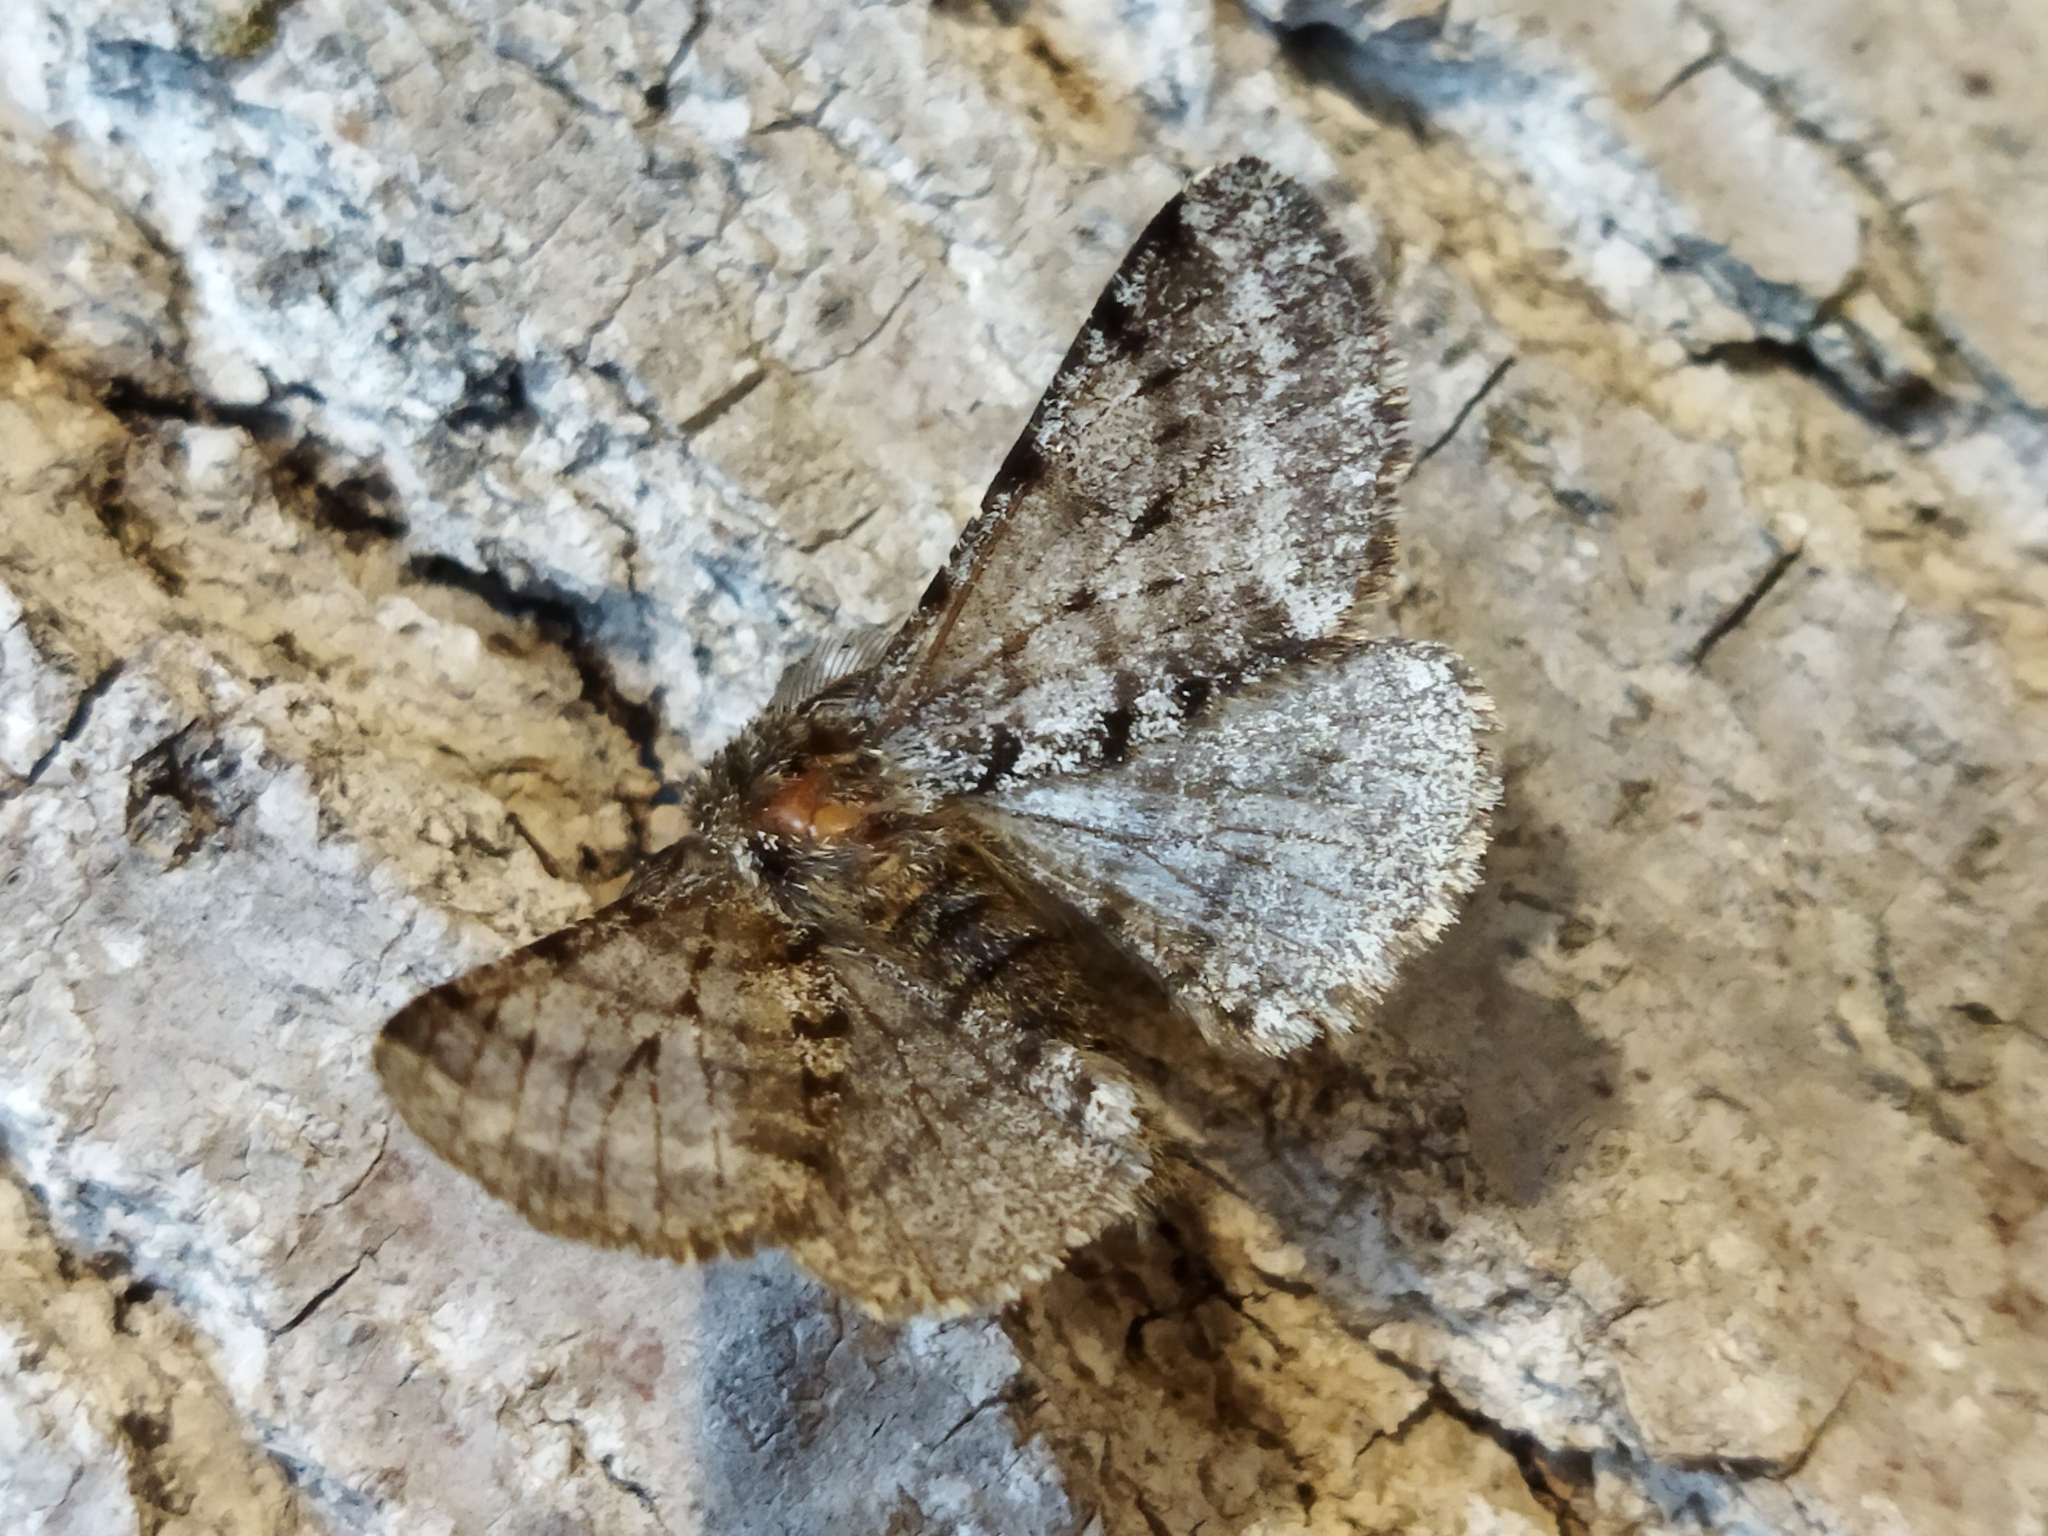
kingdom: Animalia
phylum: Arthropoda
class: Insecta
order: Lepidoptera
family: Geometridae
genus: Lycia
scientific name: Lycia hirtaria
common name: Brindled beauty
